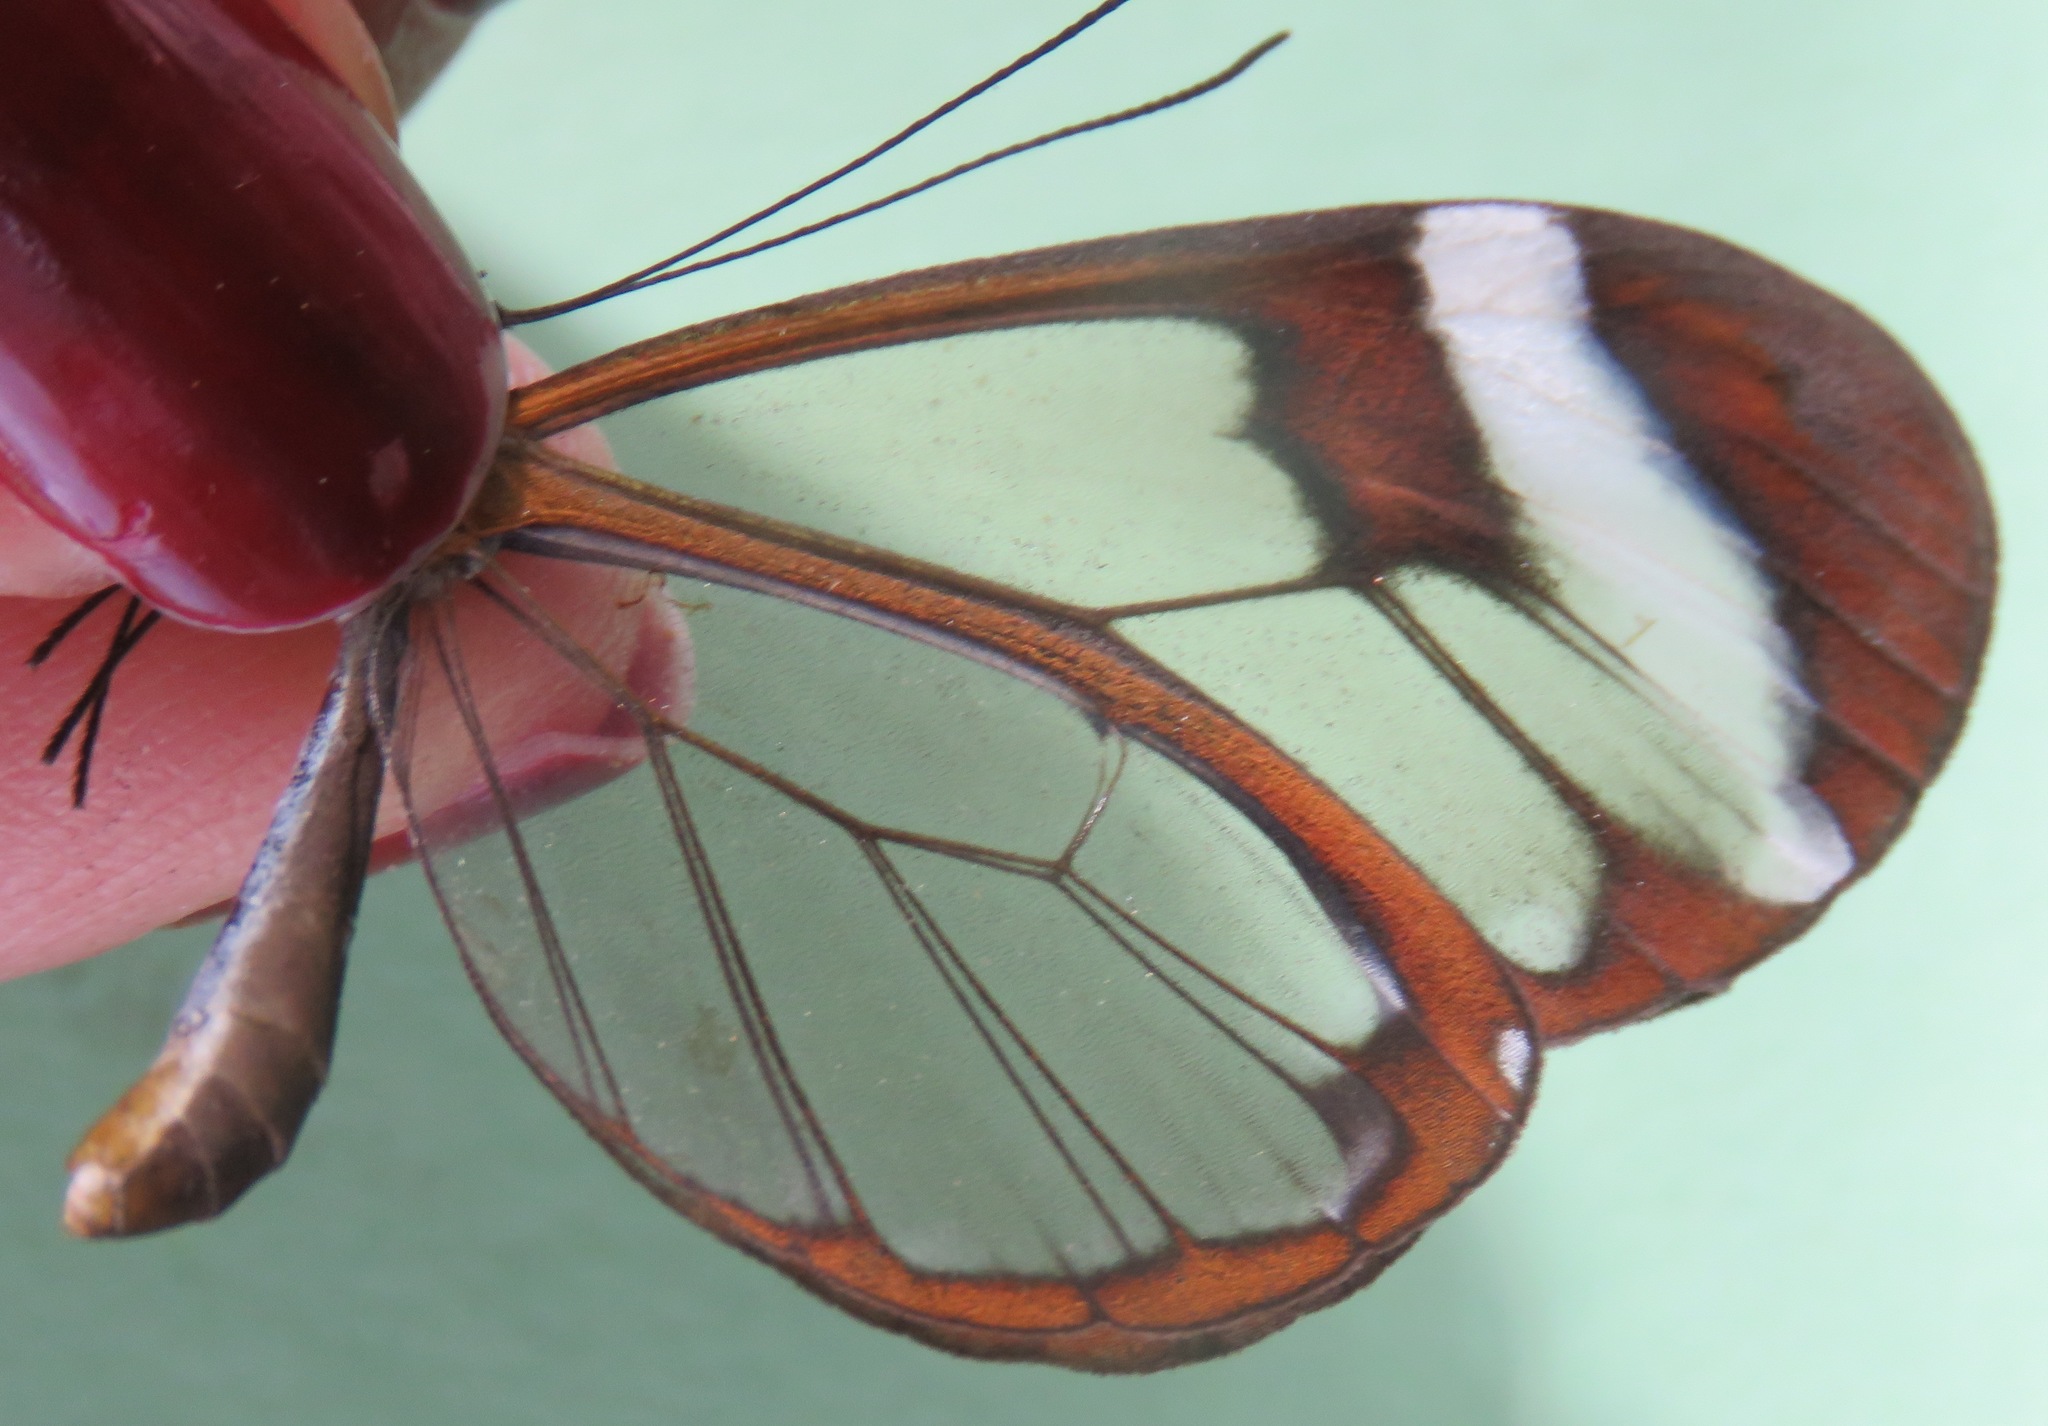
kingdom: Animalia
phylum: Arthropoda
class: Insecta
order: Lepidoptera
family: Nymphalidae
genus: Greta
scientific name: Greta morgane
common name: Thick-tipped greta
